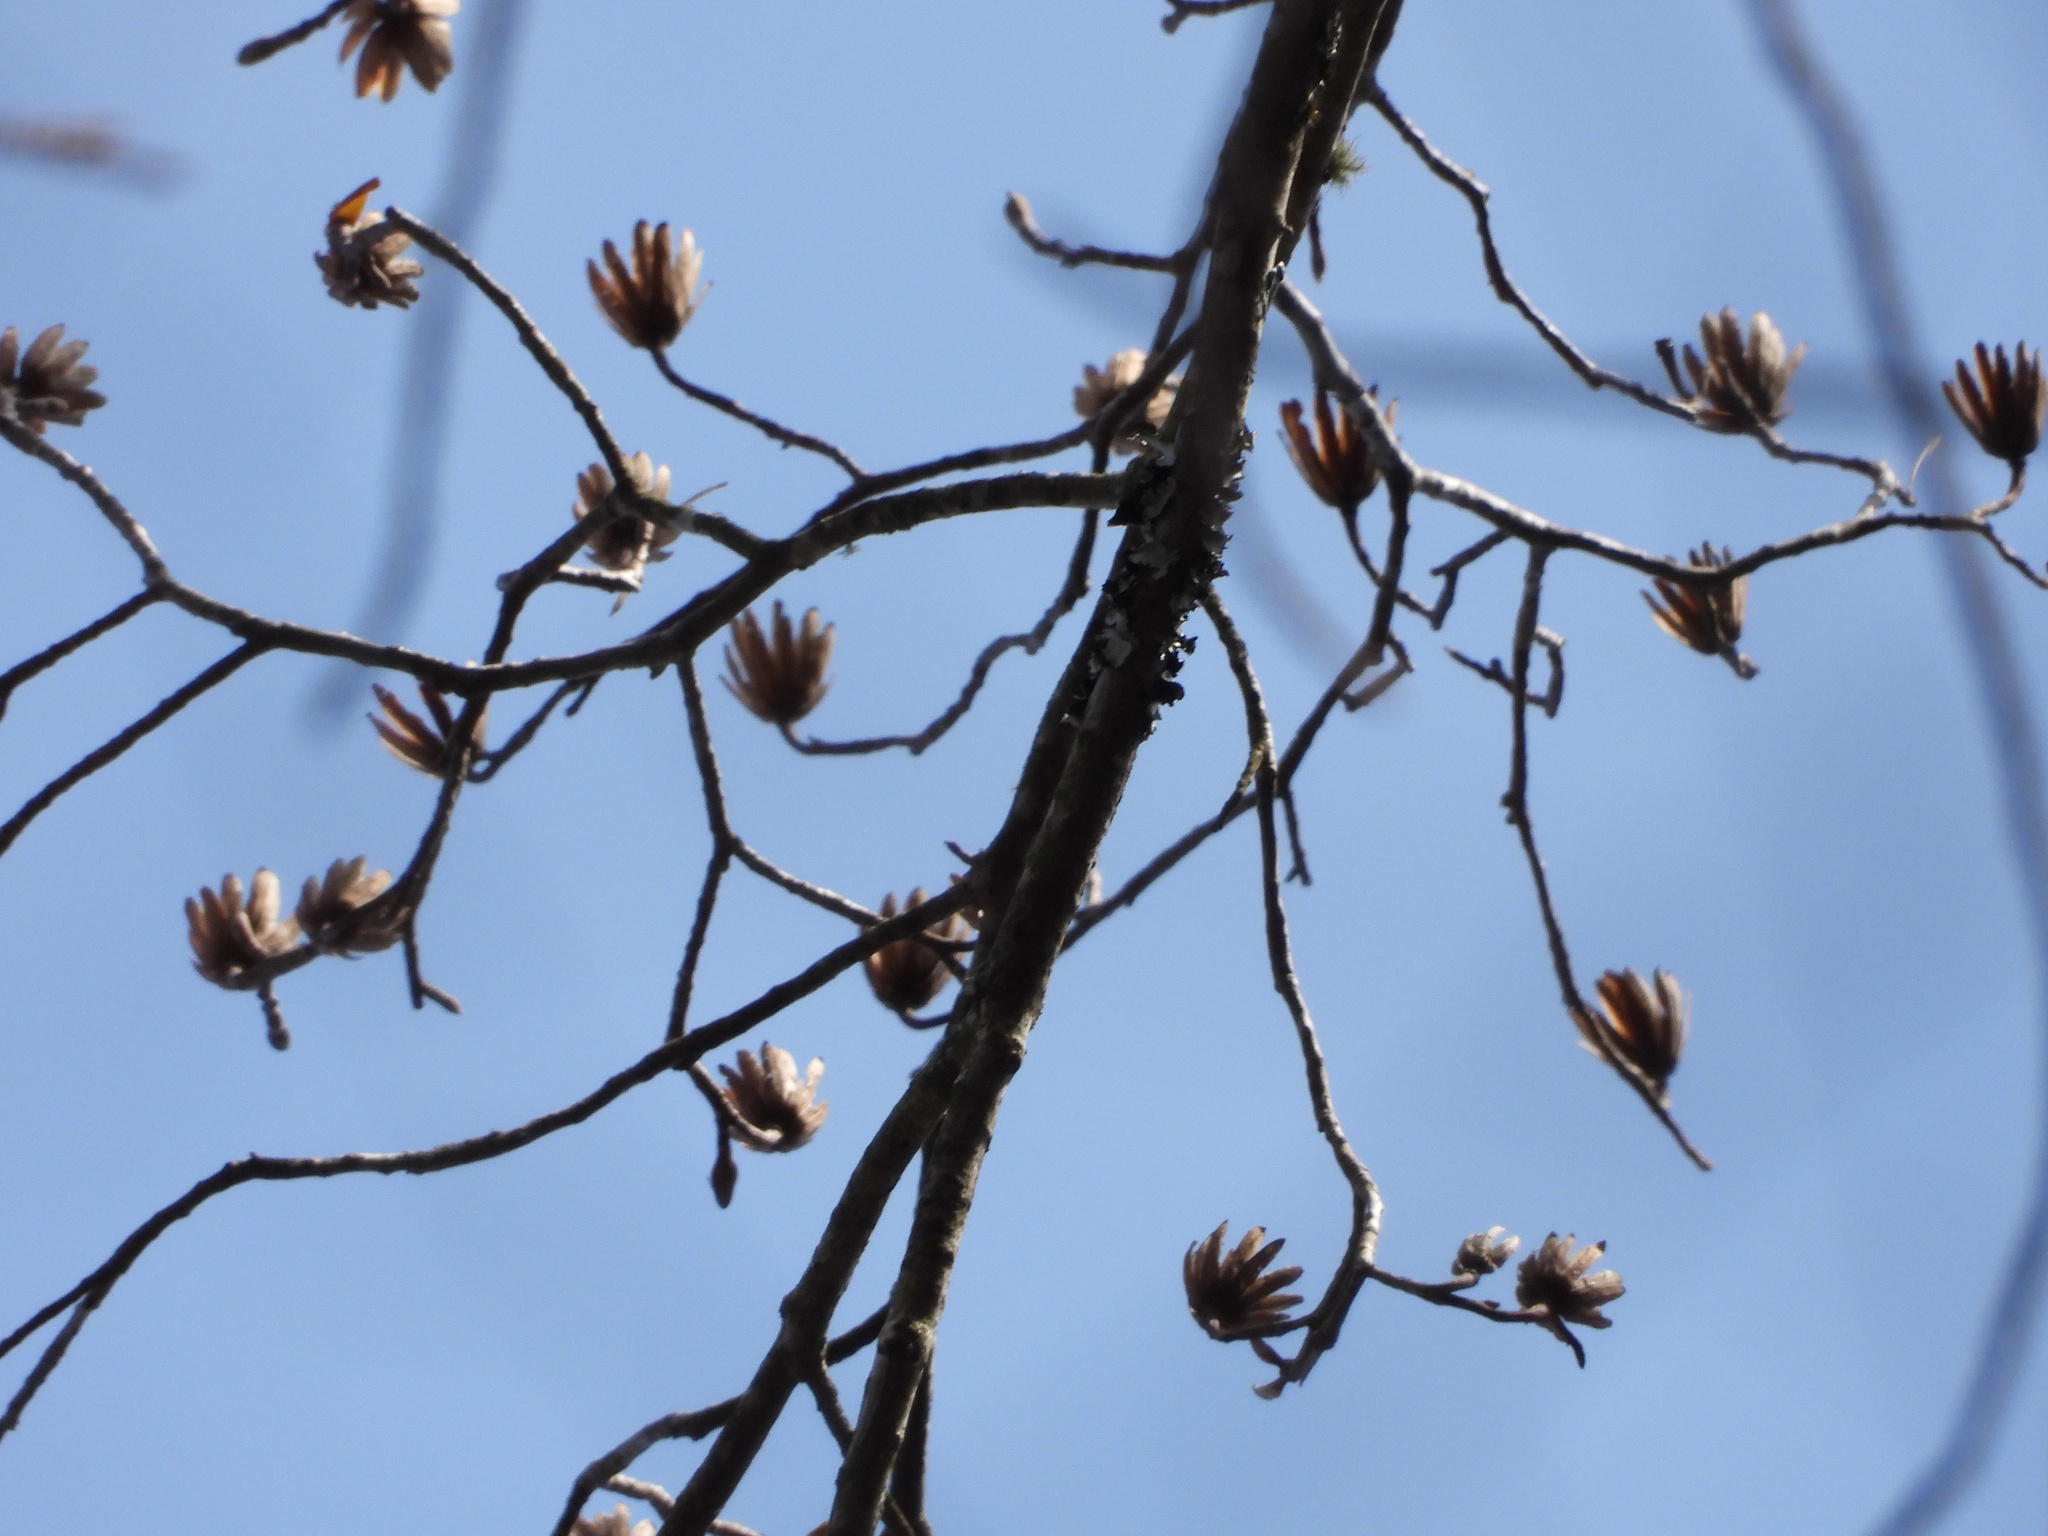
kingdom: Plantae
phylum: Tracheophyta
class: Magnoliopsida
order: Magnoliales
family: Magnoliaceae
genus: Liriodendron
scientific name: Liriodendron tulipifera
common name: Tulip tree
